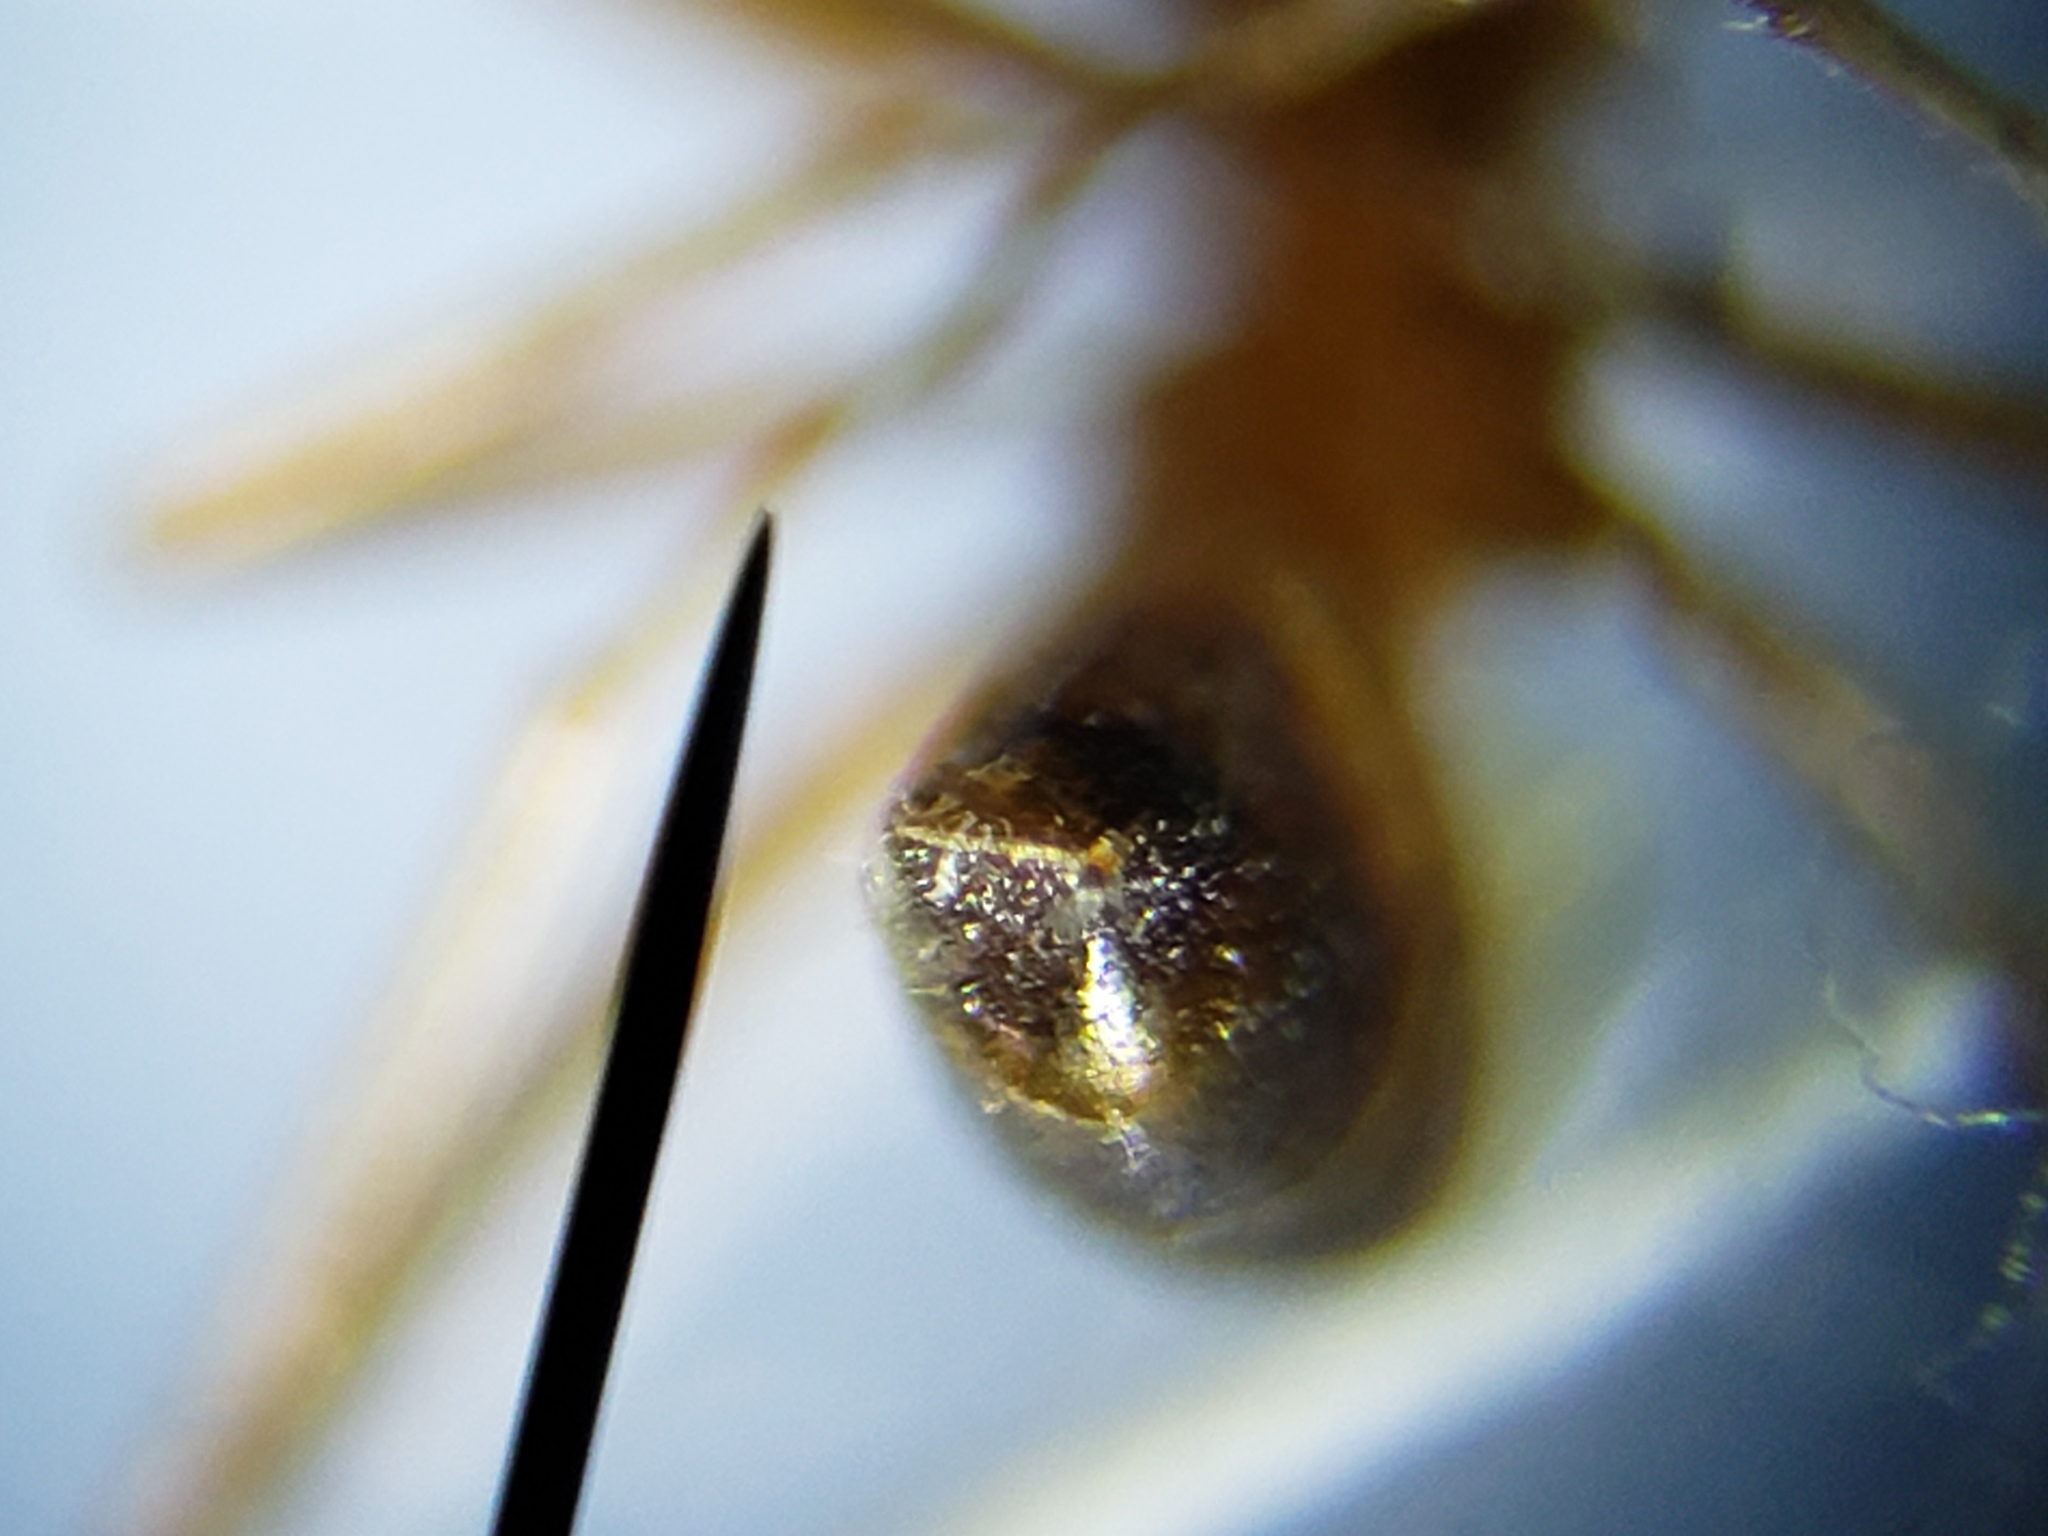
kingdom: Animalia
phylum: Arthropoda
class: Insecta
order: Hymenoptera
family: Formicidae
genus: Dorymyrmex
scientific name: Dorymyrmex bureni
